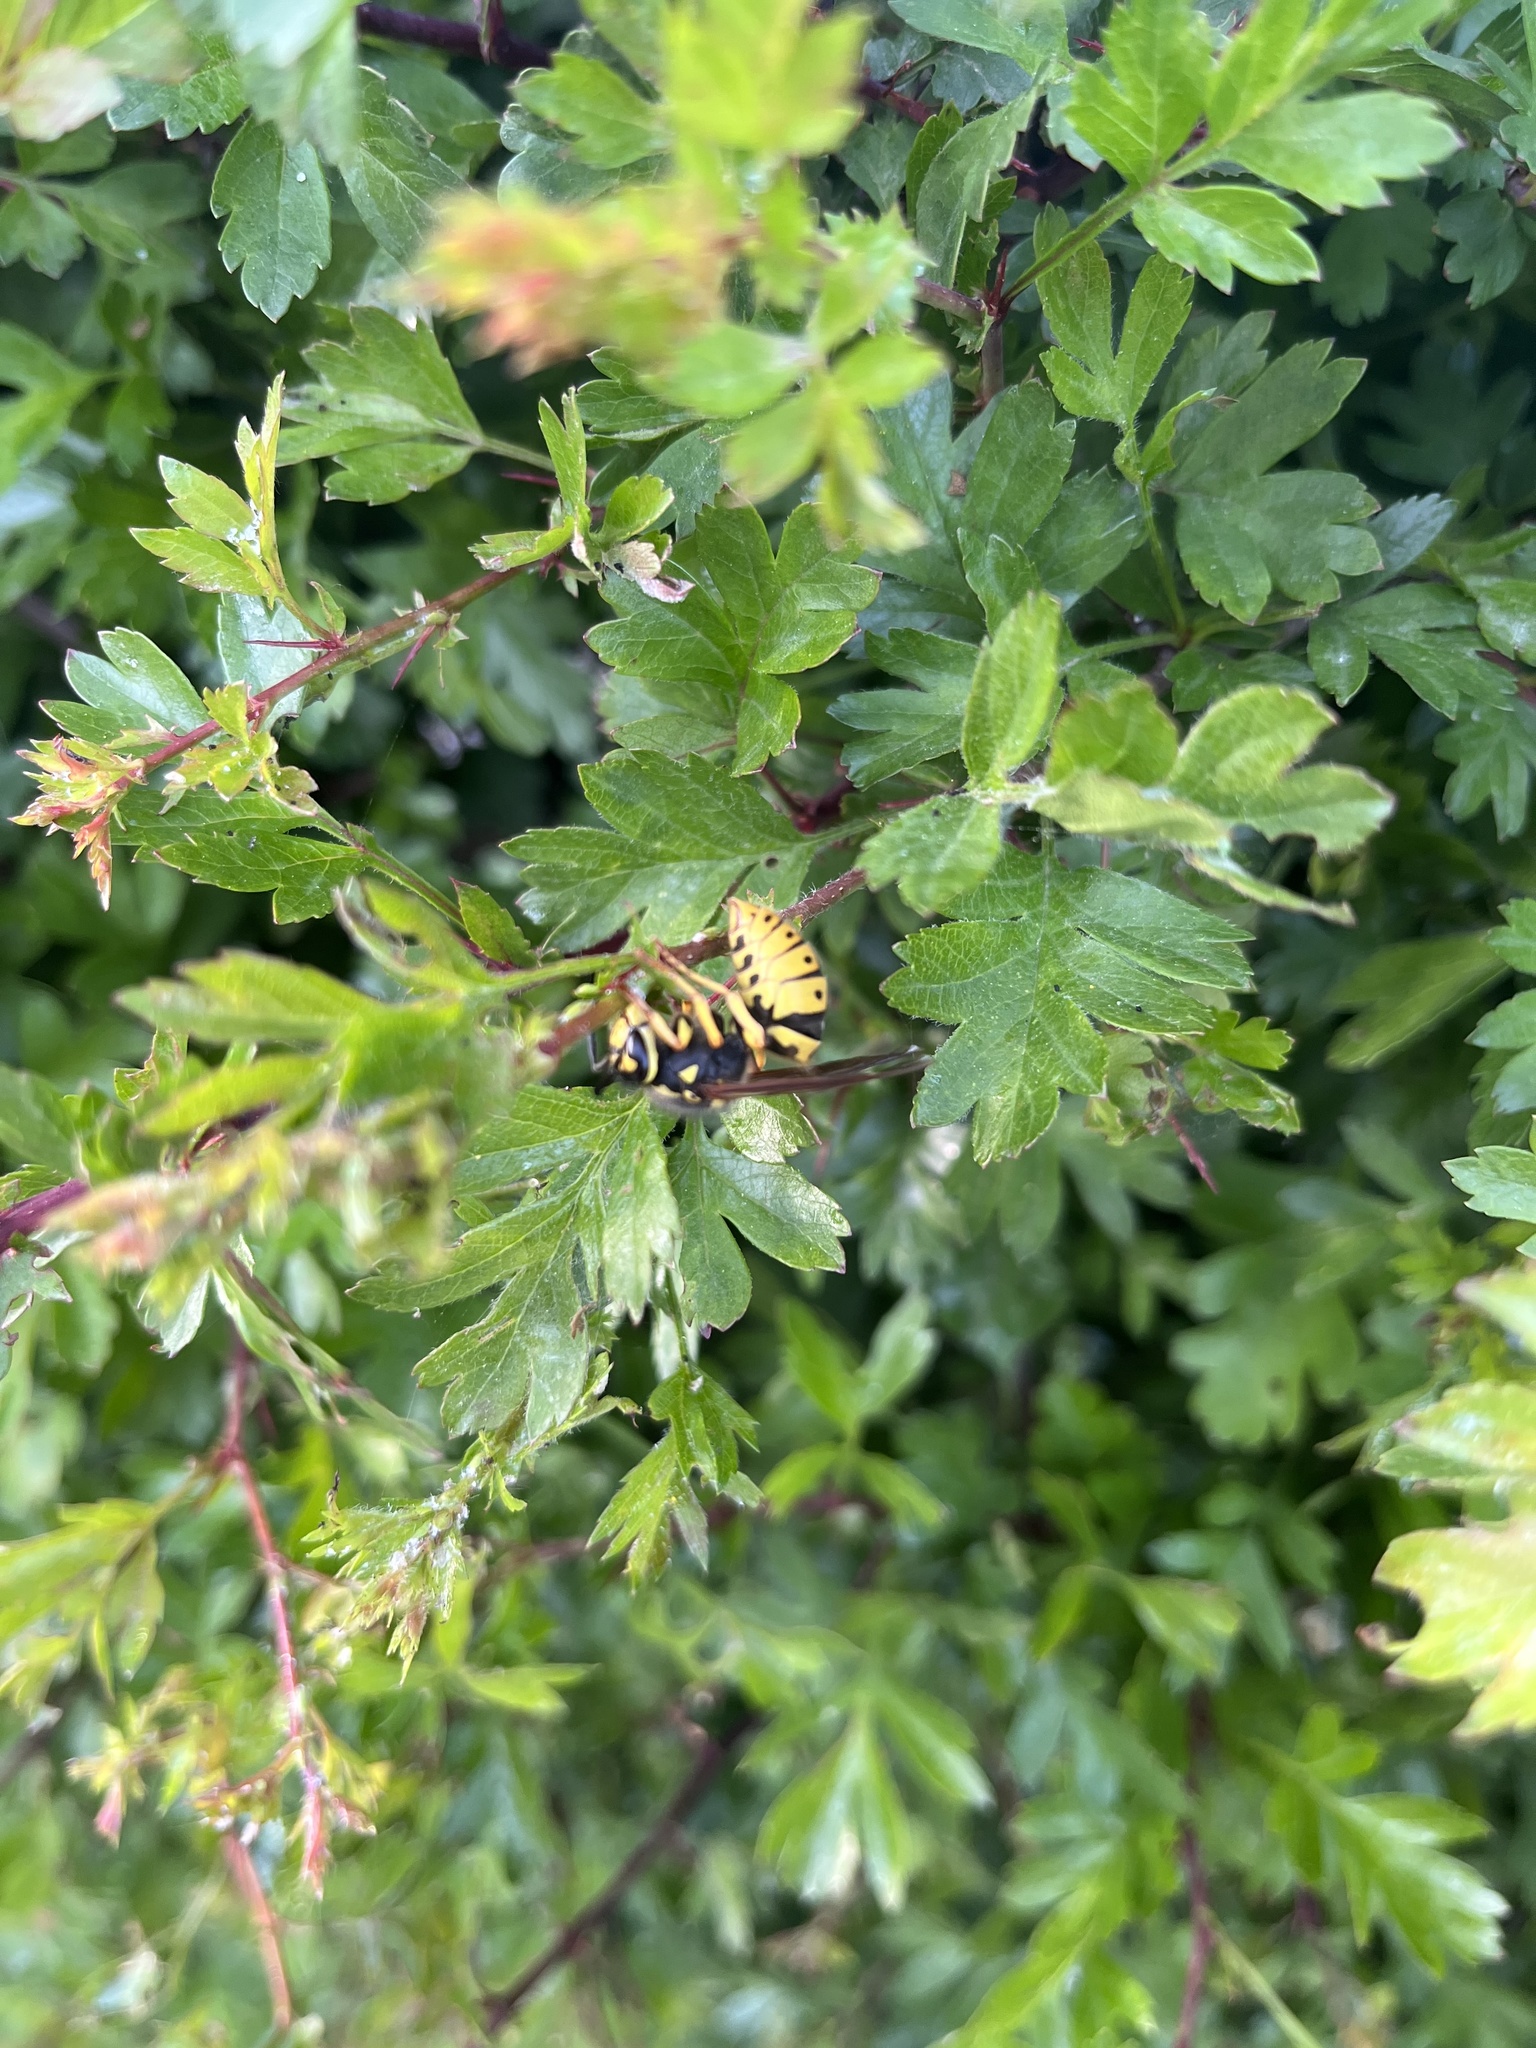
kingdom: Animalia
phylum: Arthropoda
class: Insecta
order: Hymenoptera
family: Vespidae
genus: Vespula
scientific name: Vespula germanica
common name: German wasp
